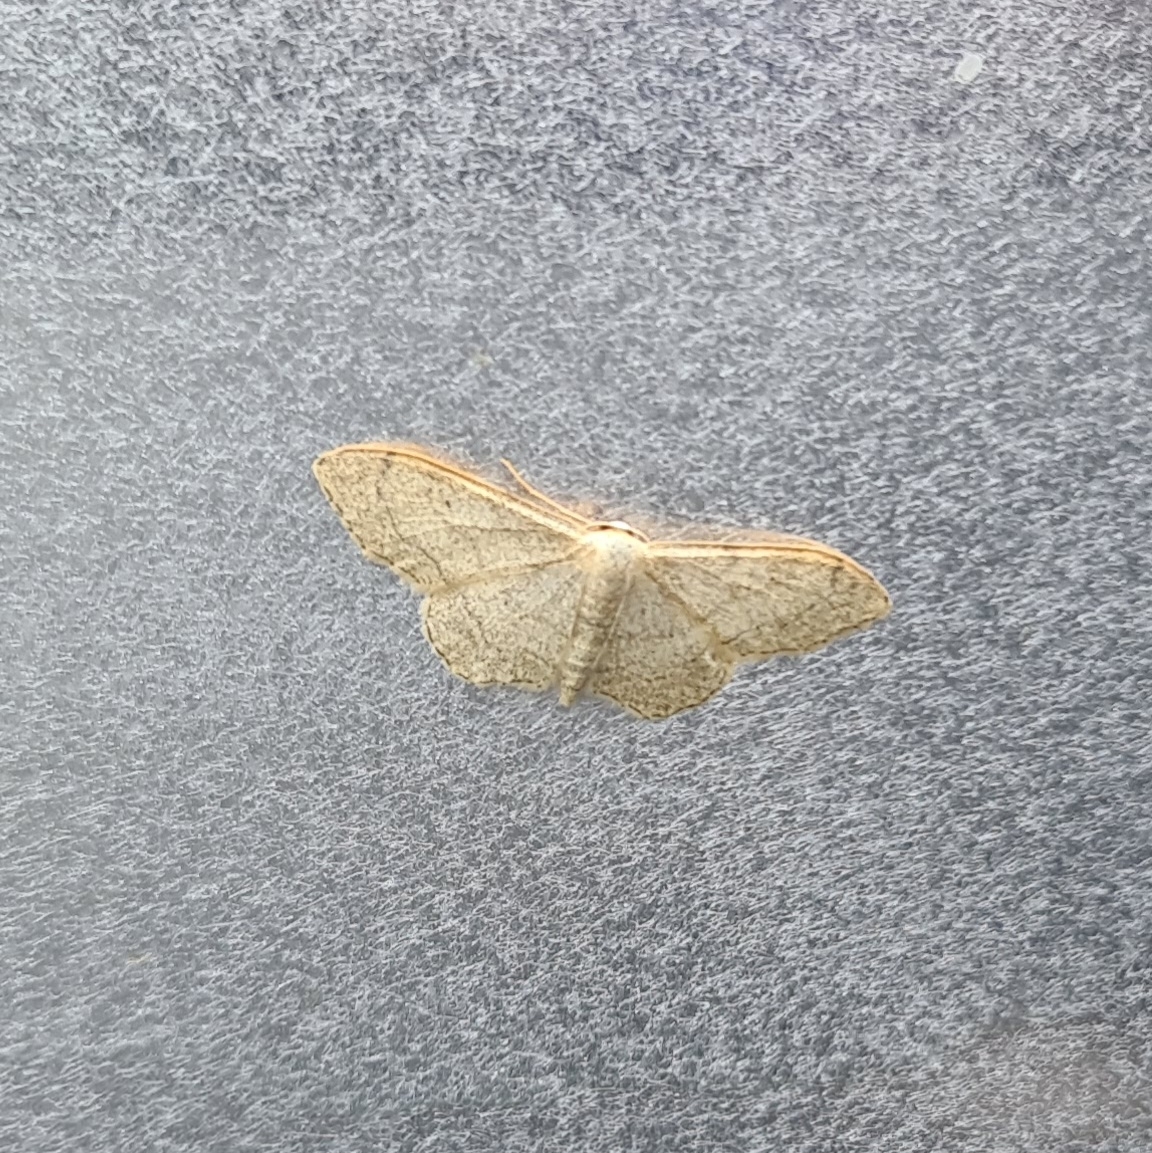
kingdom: Animalia
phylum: Arthropoda
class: Insecta
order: Lepidoptera
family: Geometridae
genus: Idaea
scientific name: Idaea aversata
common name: Riband wave
